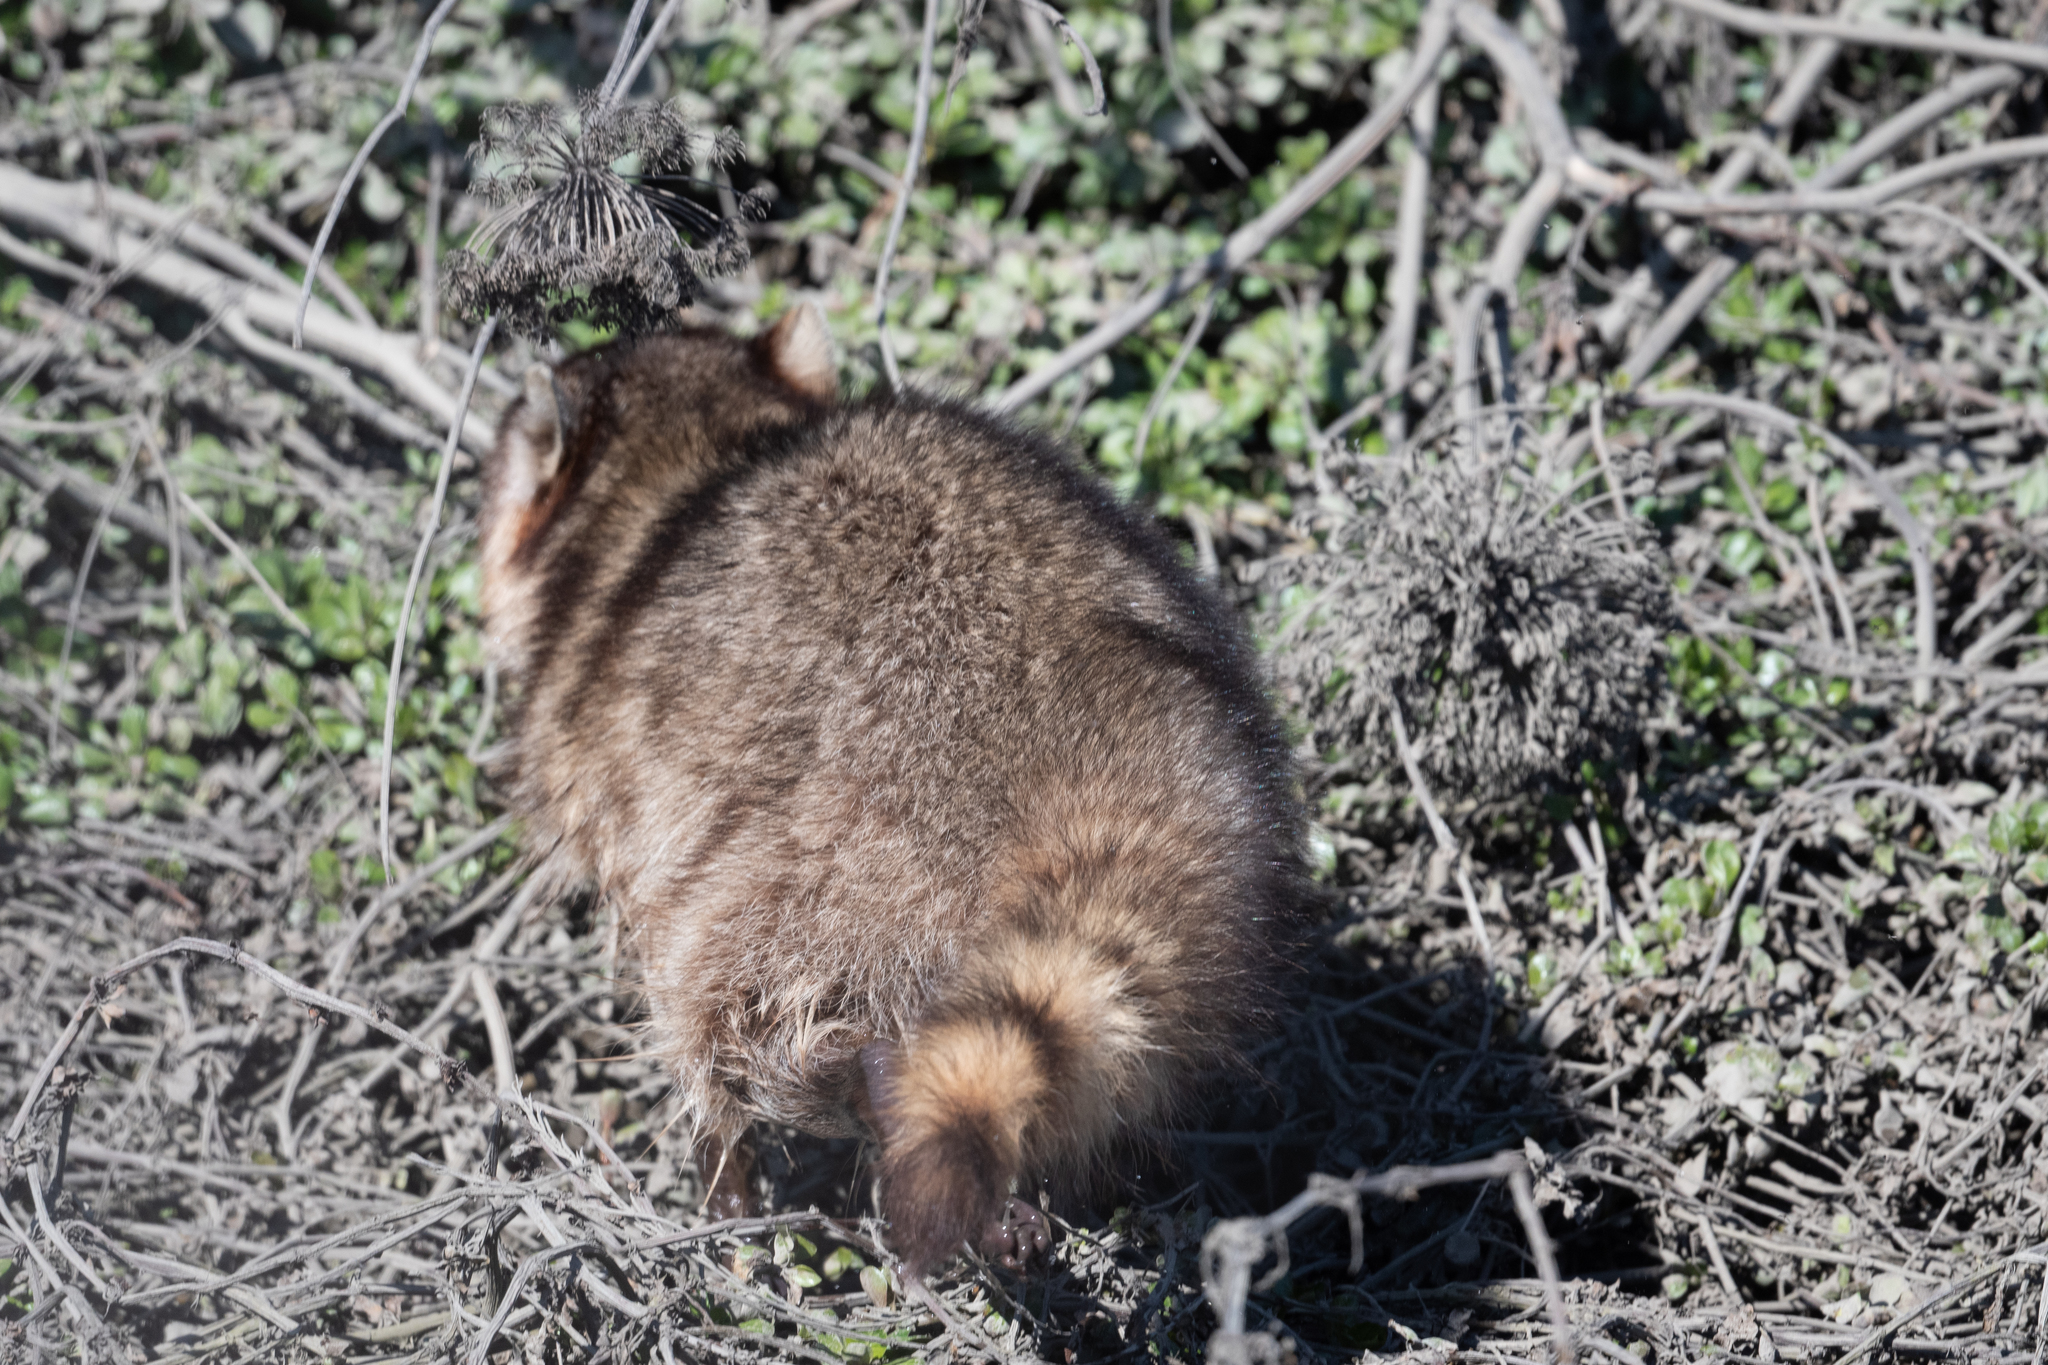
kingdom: Animalia
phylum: Chordata
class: Mammalia
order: Carnivora
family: Procyonidae
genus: Procyon
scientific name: Procyon lotor
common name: Raccoon
